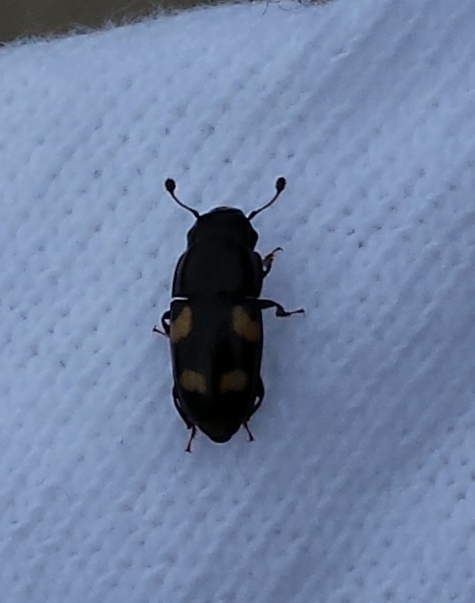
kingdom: Animalia
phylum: Arthropoda
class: Insecta
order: Coleoptera
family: Nitidulidae
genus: Glischrochilus
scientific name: Glischrochilus quadrisignatus
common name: Picnic beetle
